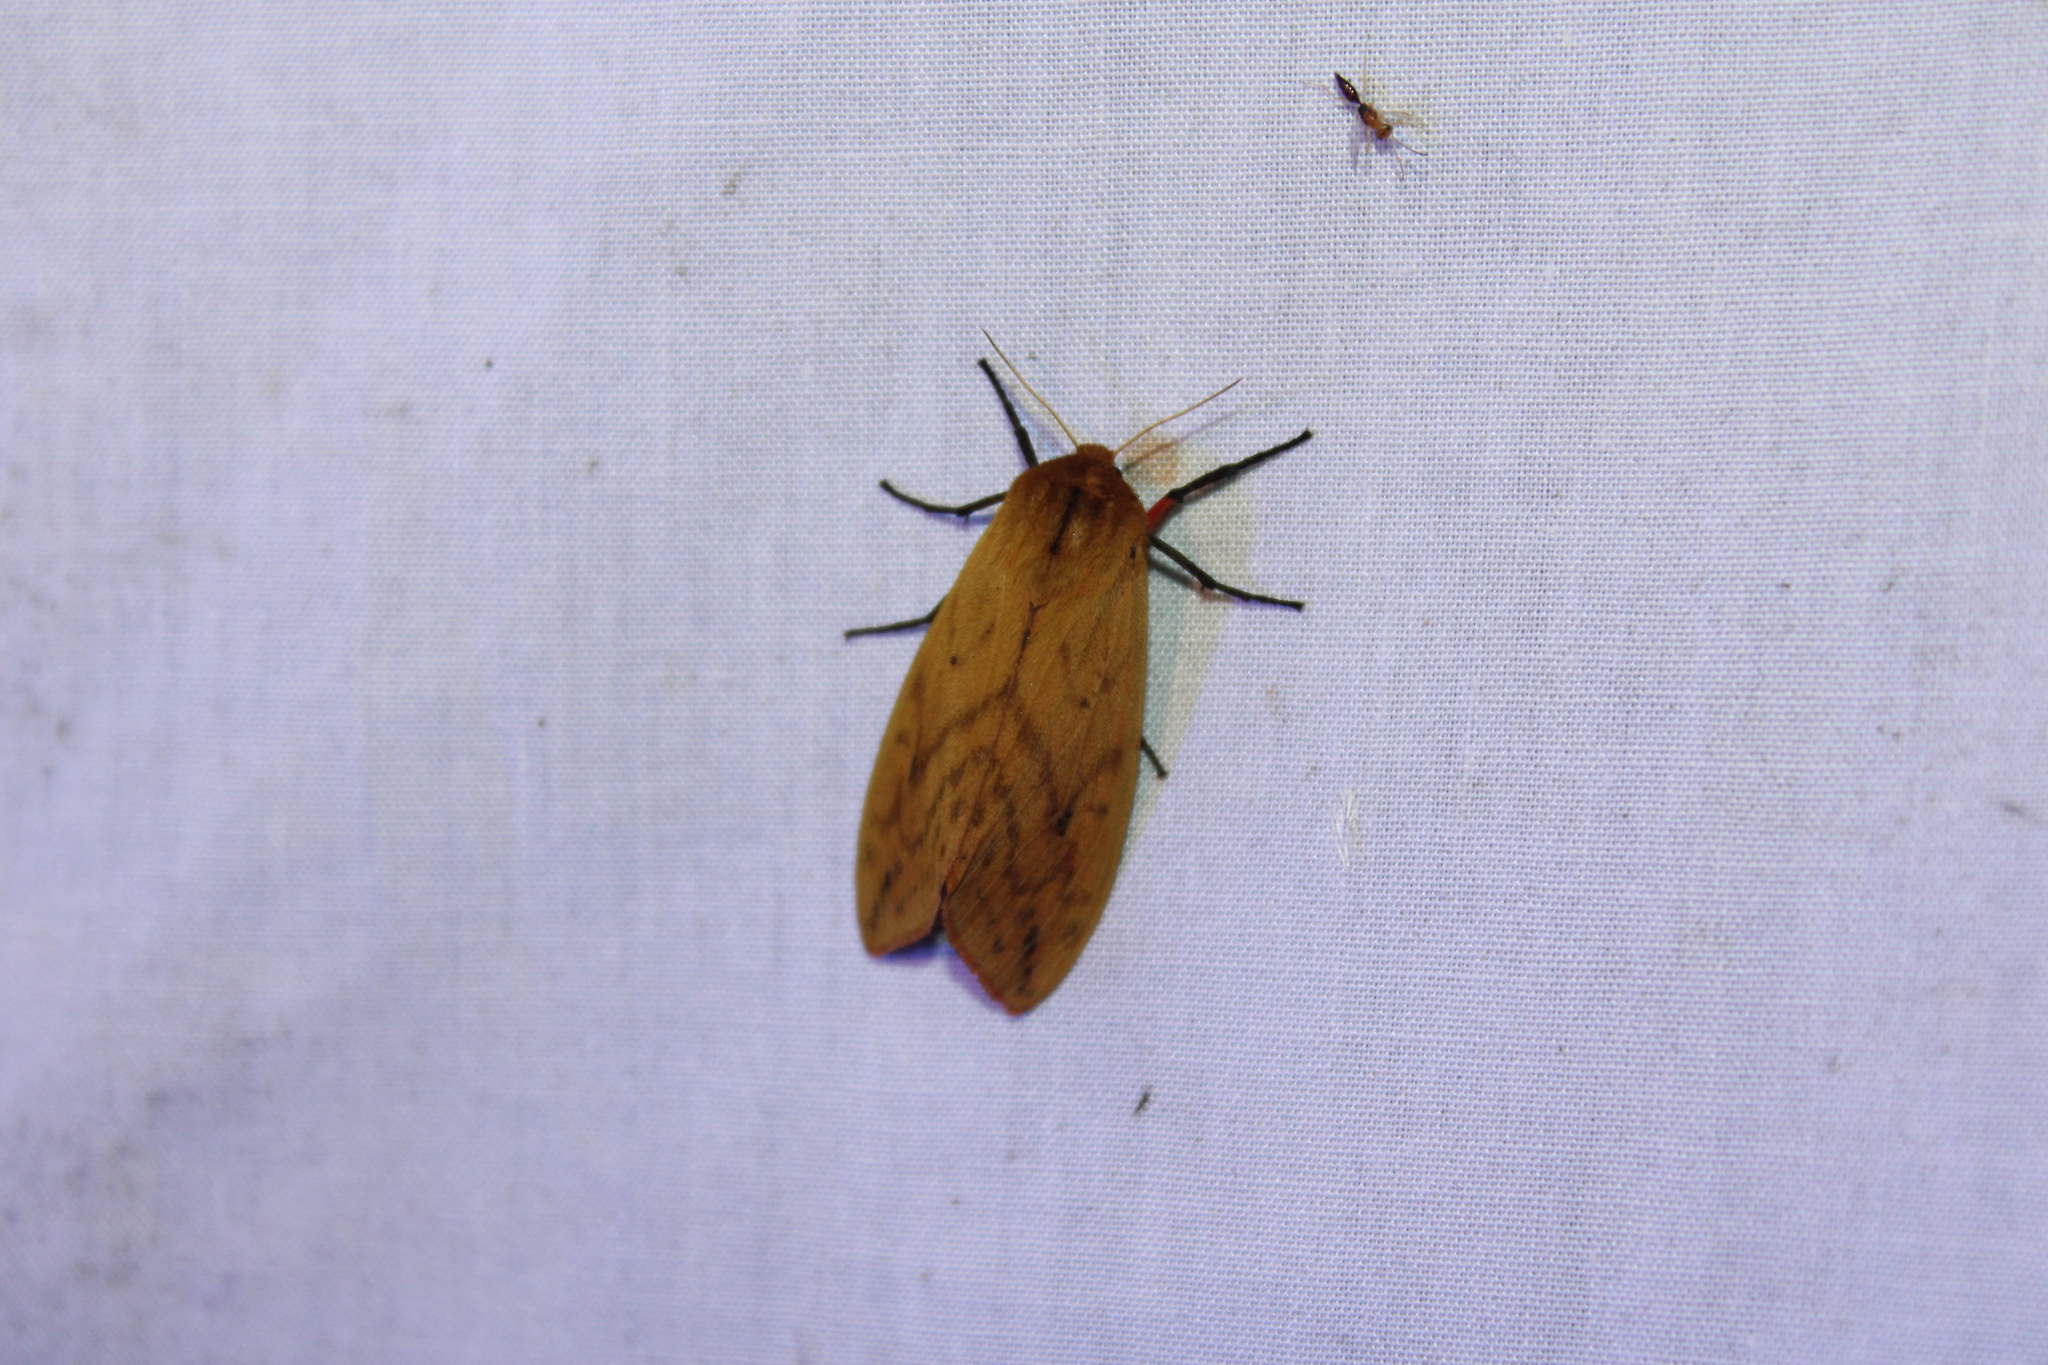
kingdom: Animalia
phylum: Arthropoda
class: Insecta
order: Lepidoptera
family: Erebidae
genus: Pyrrharctia
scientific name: Pyrrharctia isabella
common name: Isabella tiger moth
